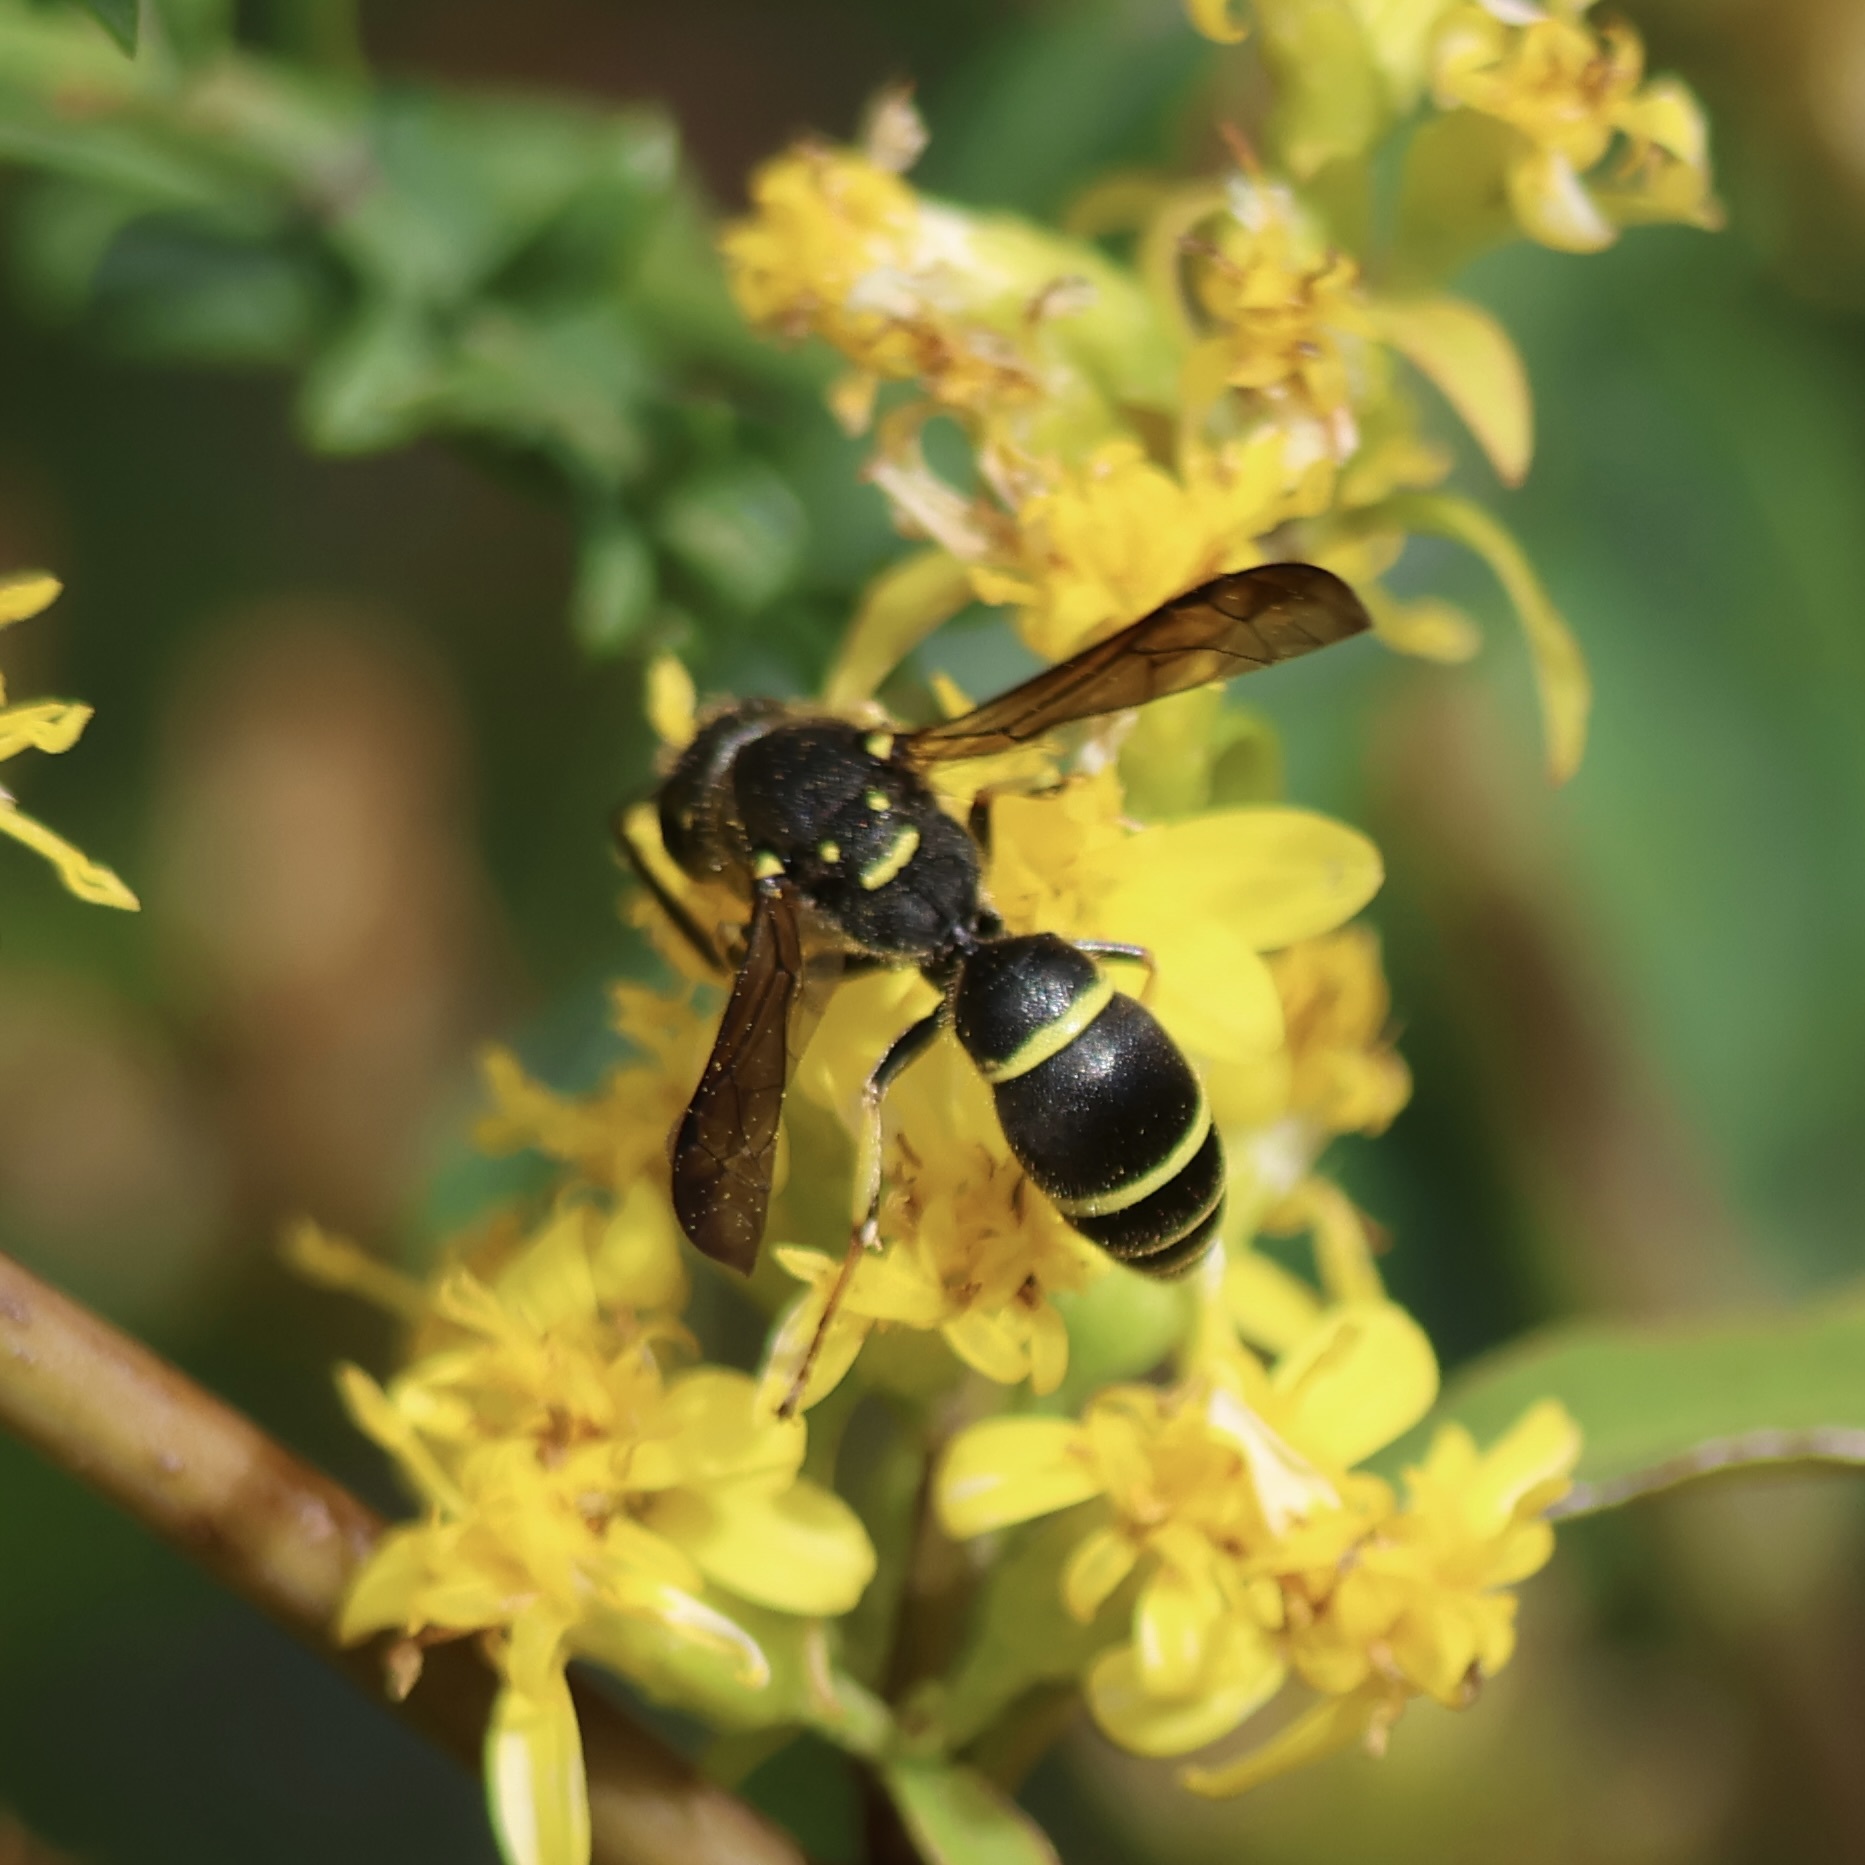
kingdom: Animalia
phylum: Arthropoda
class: Insecta
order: Hymenoptera
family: Vespidae
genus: Ancistrocerus
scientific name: Ancistrocerus adiabatus
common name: Bramble mason wasp
